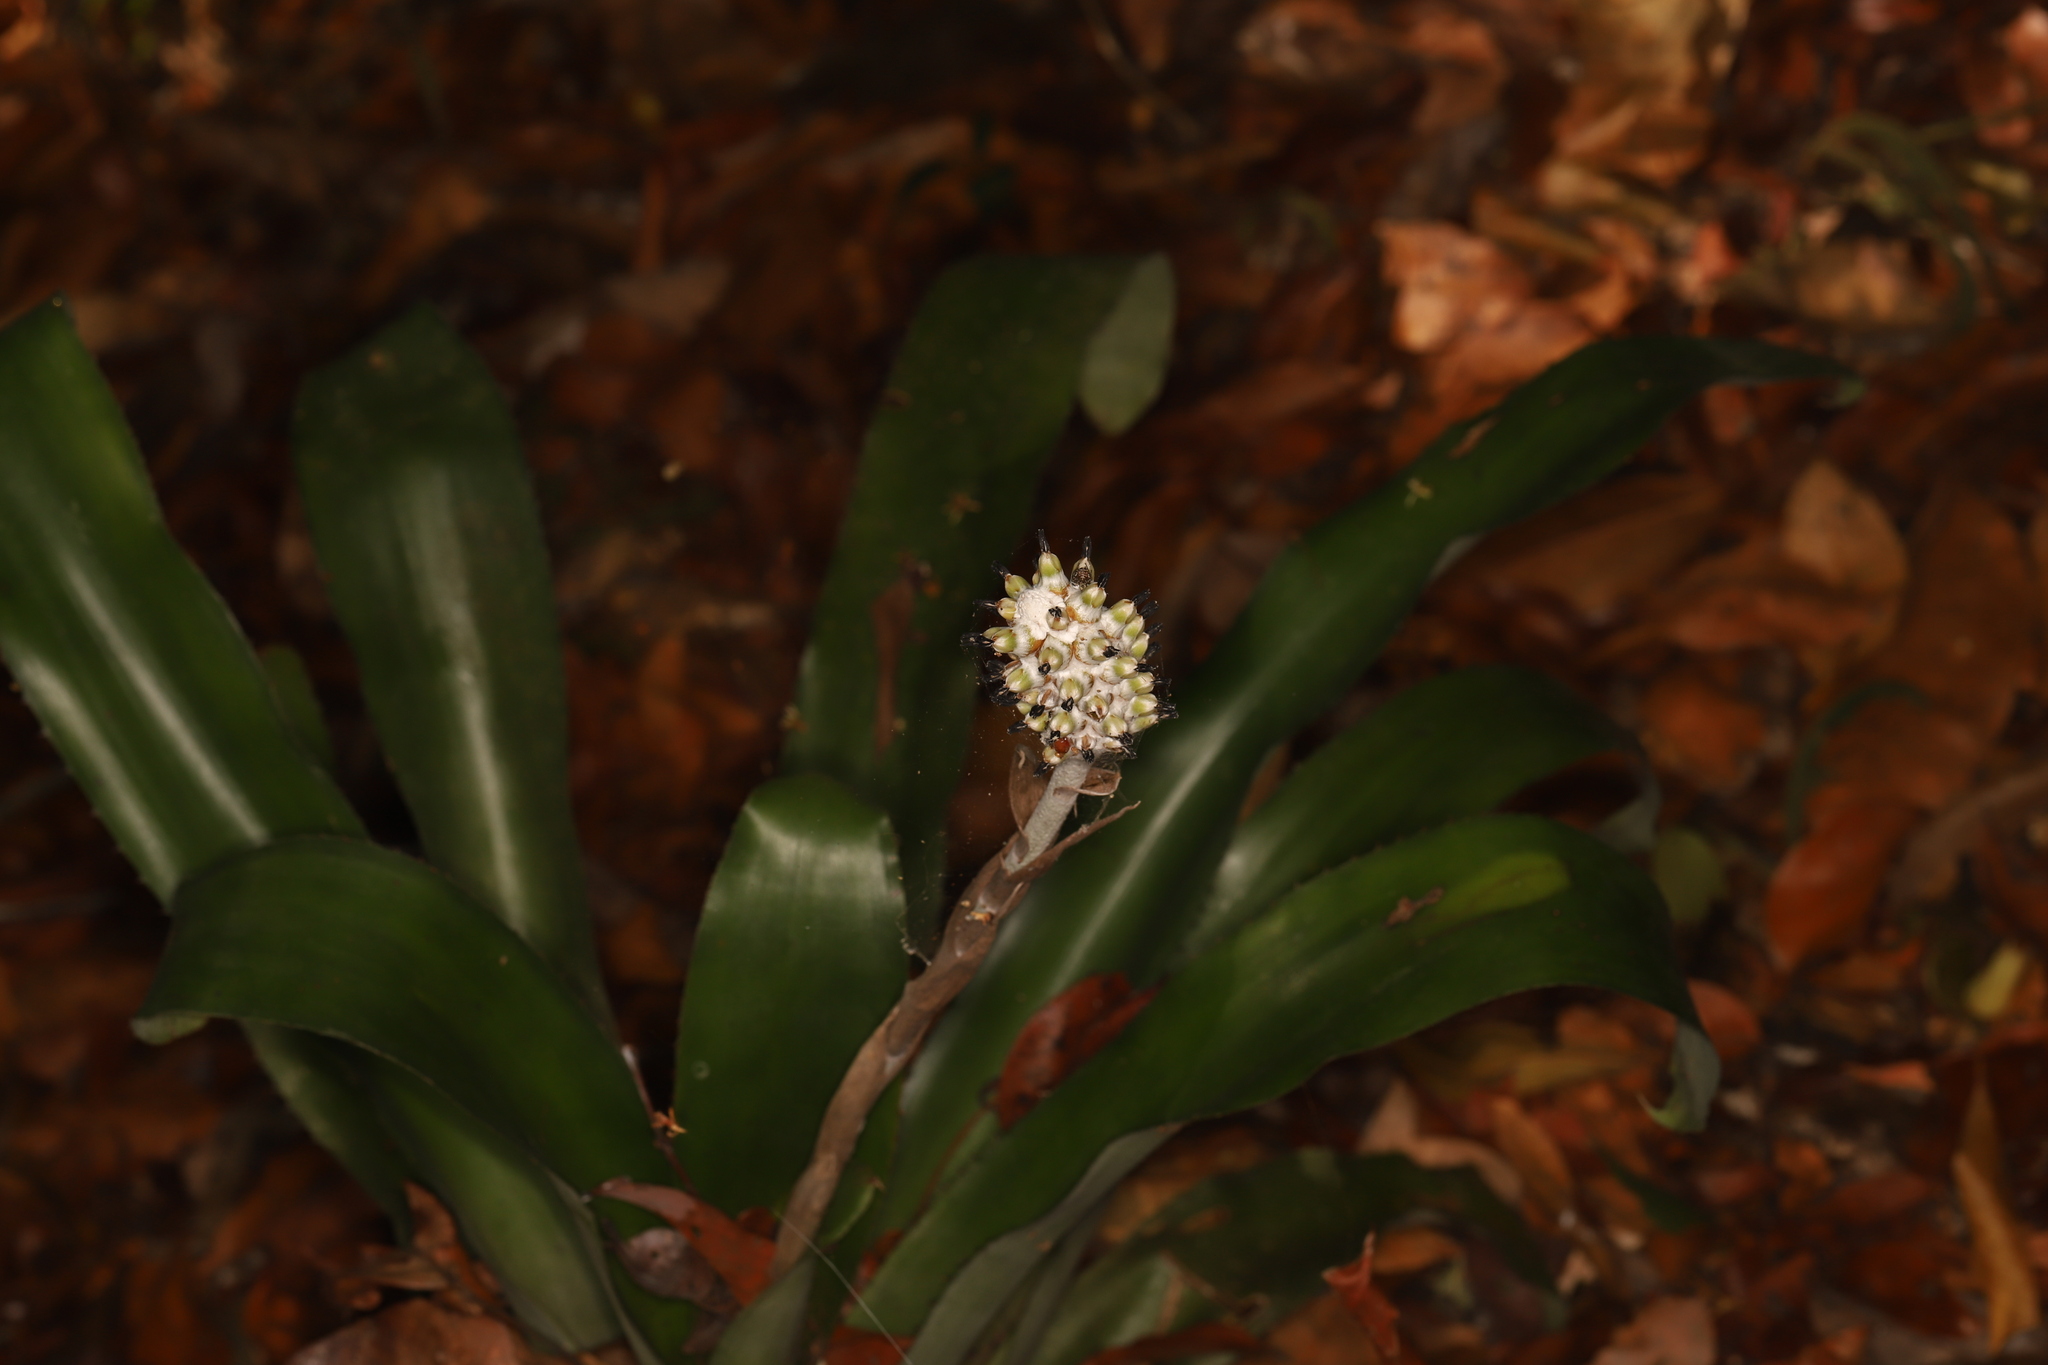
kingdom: Plantae
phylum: Tracheophyta
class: Liliopsida
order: Poales
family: Bromeliaceae
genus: Aechmea
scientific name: Aechmea bromeliifolia
